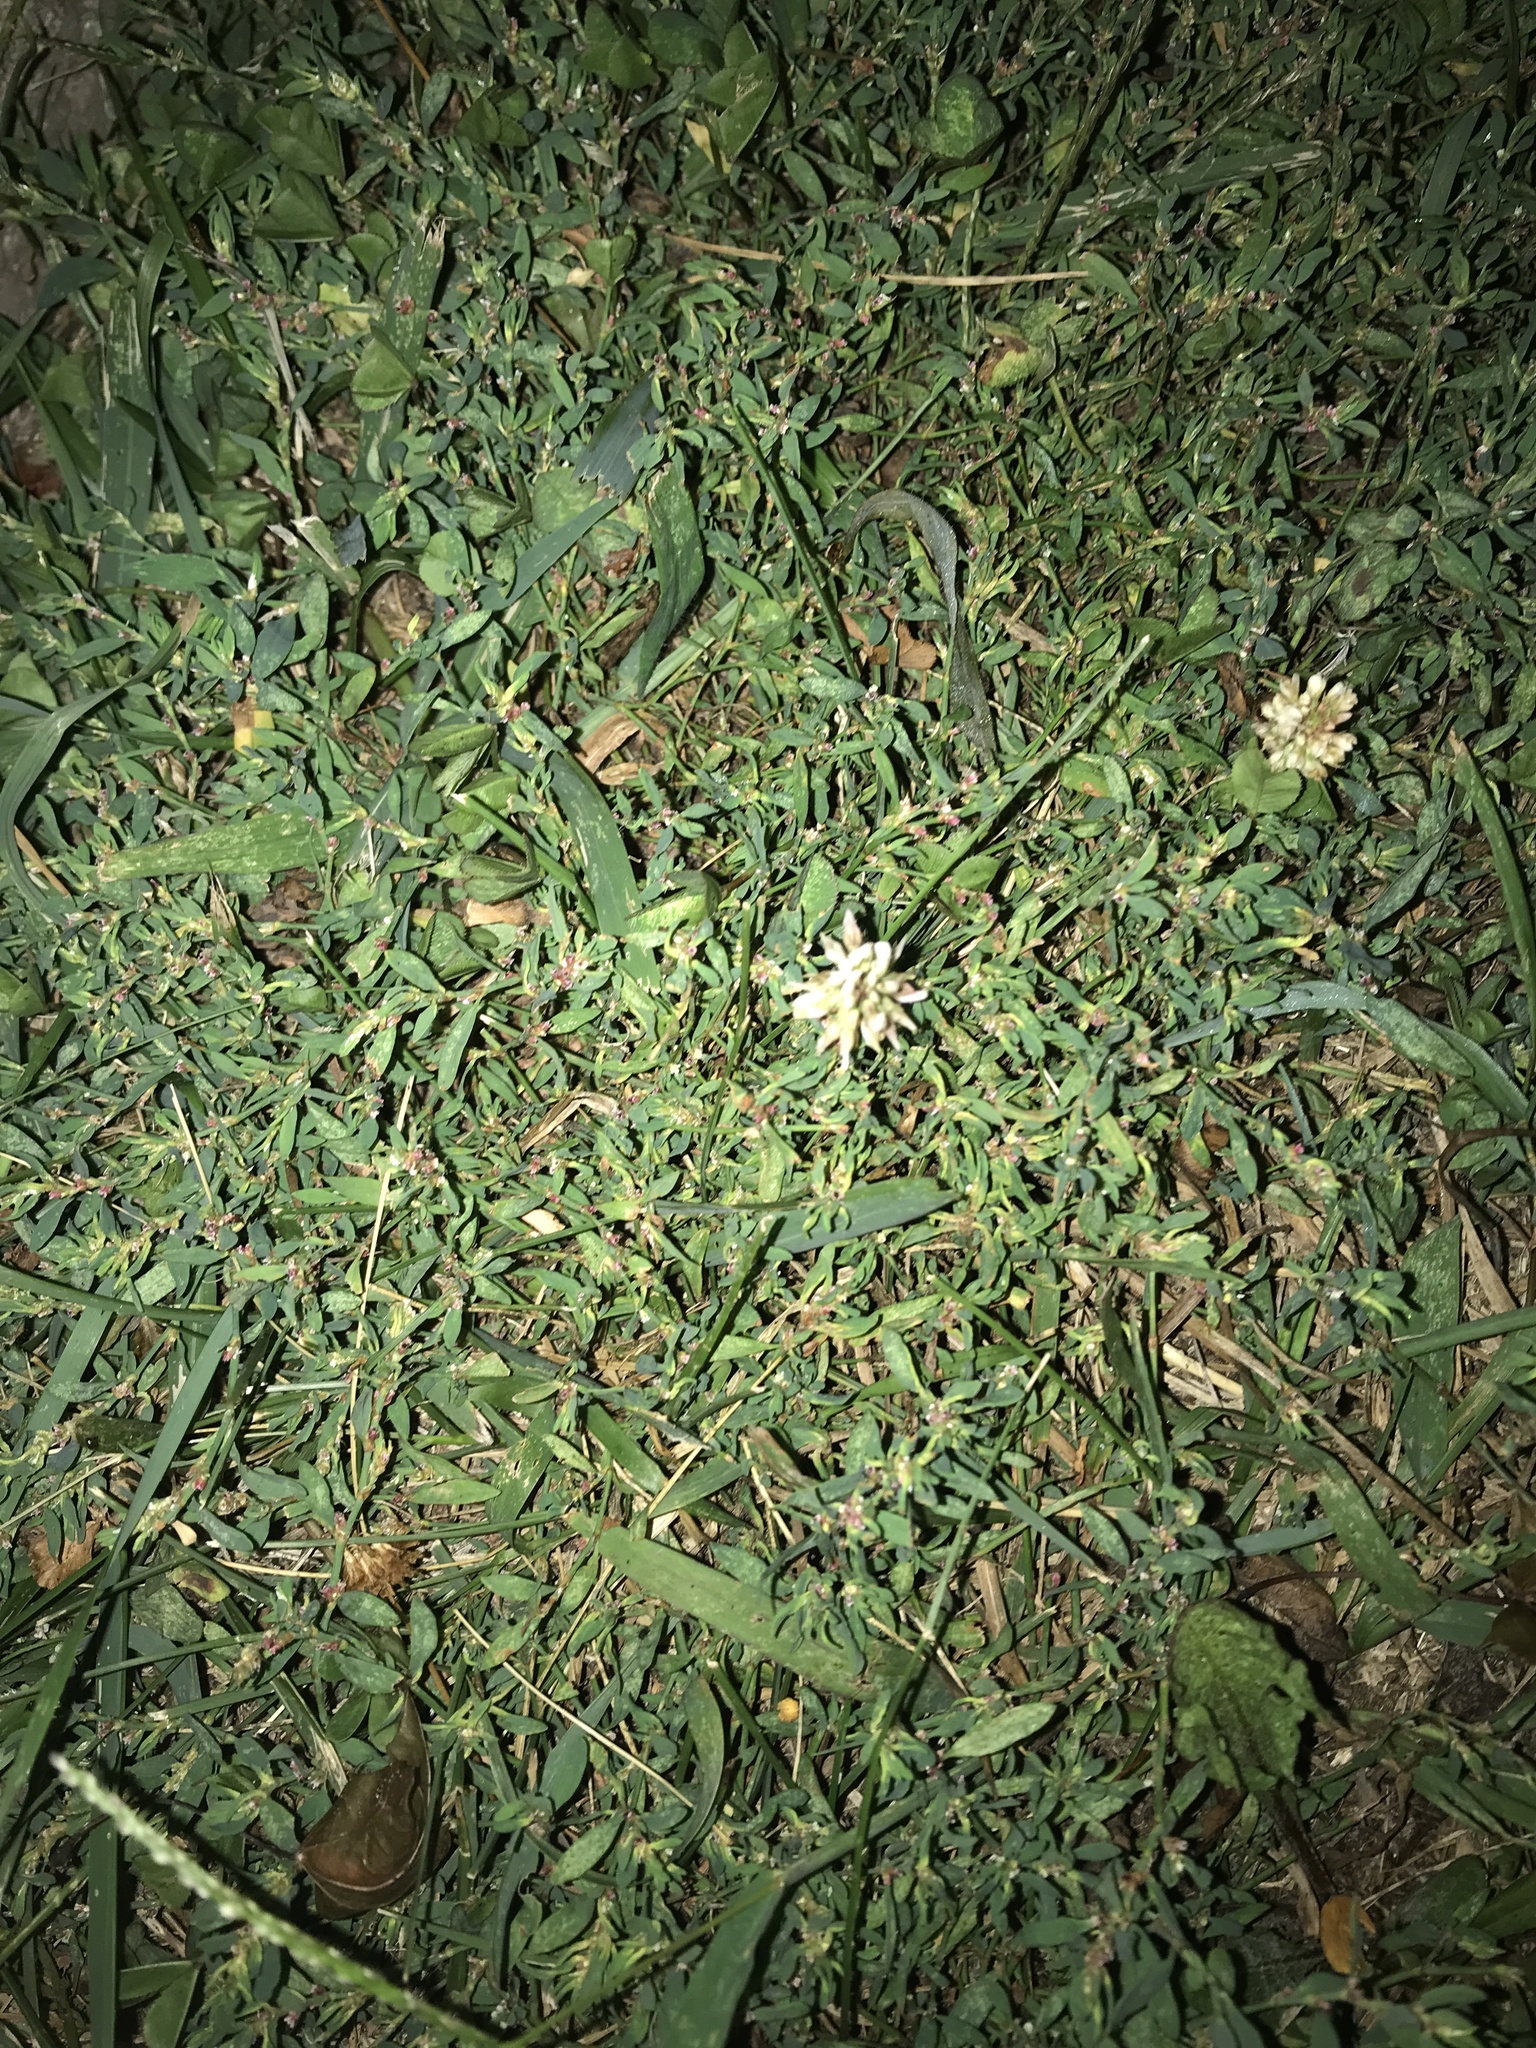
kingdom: Plantae
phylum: Tracheophyta
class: Magnoliopsida
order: Fabales
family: Fabaceae
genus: Trifolium
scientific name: Trifolium repens
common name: White clover
